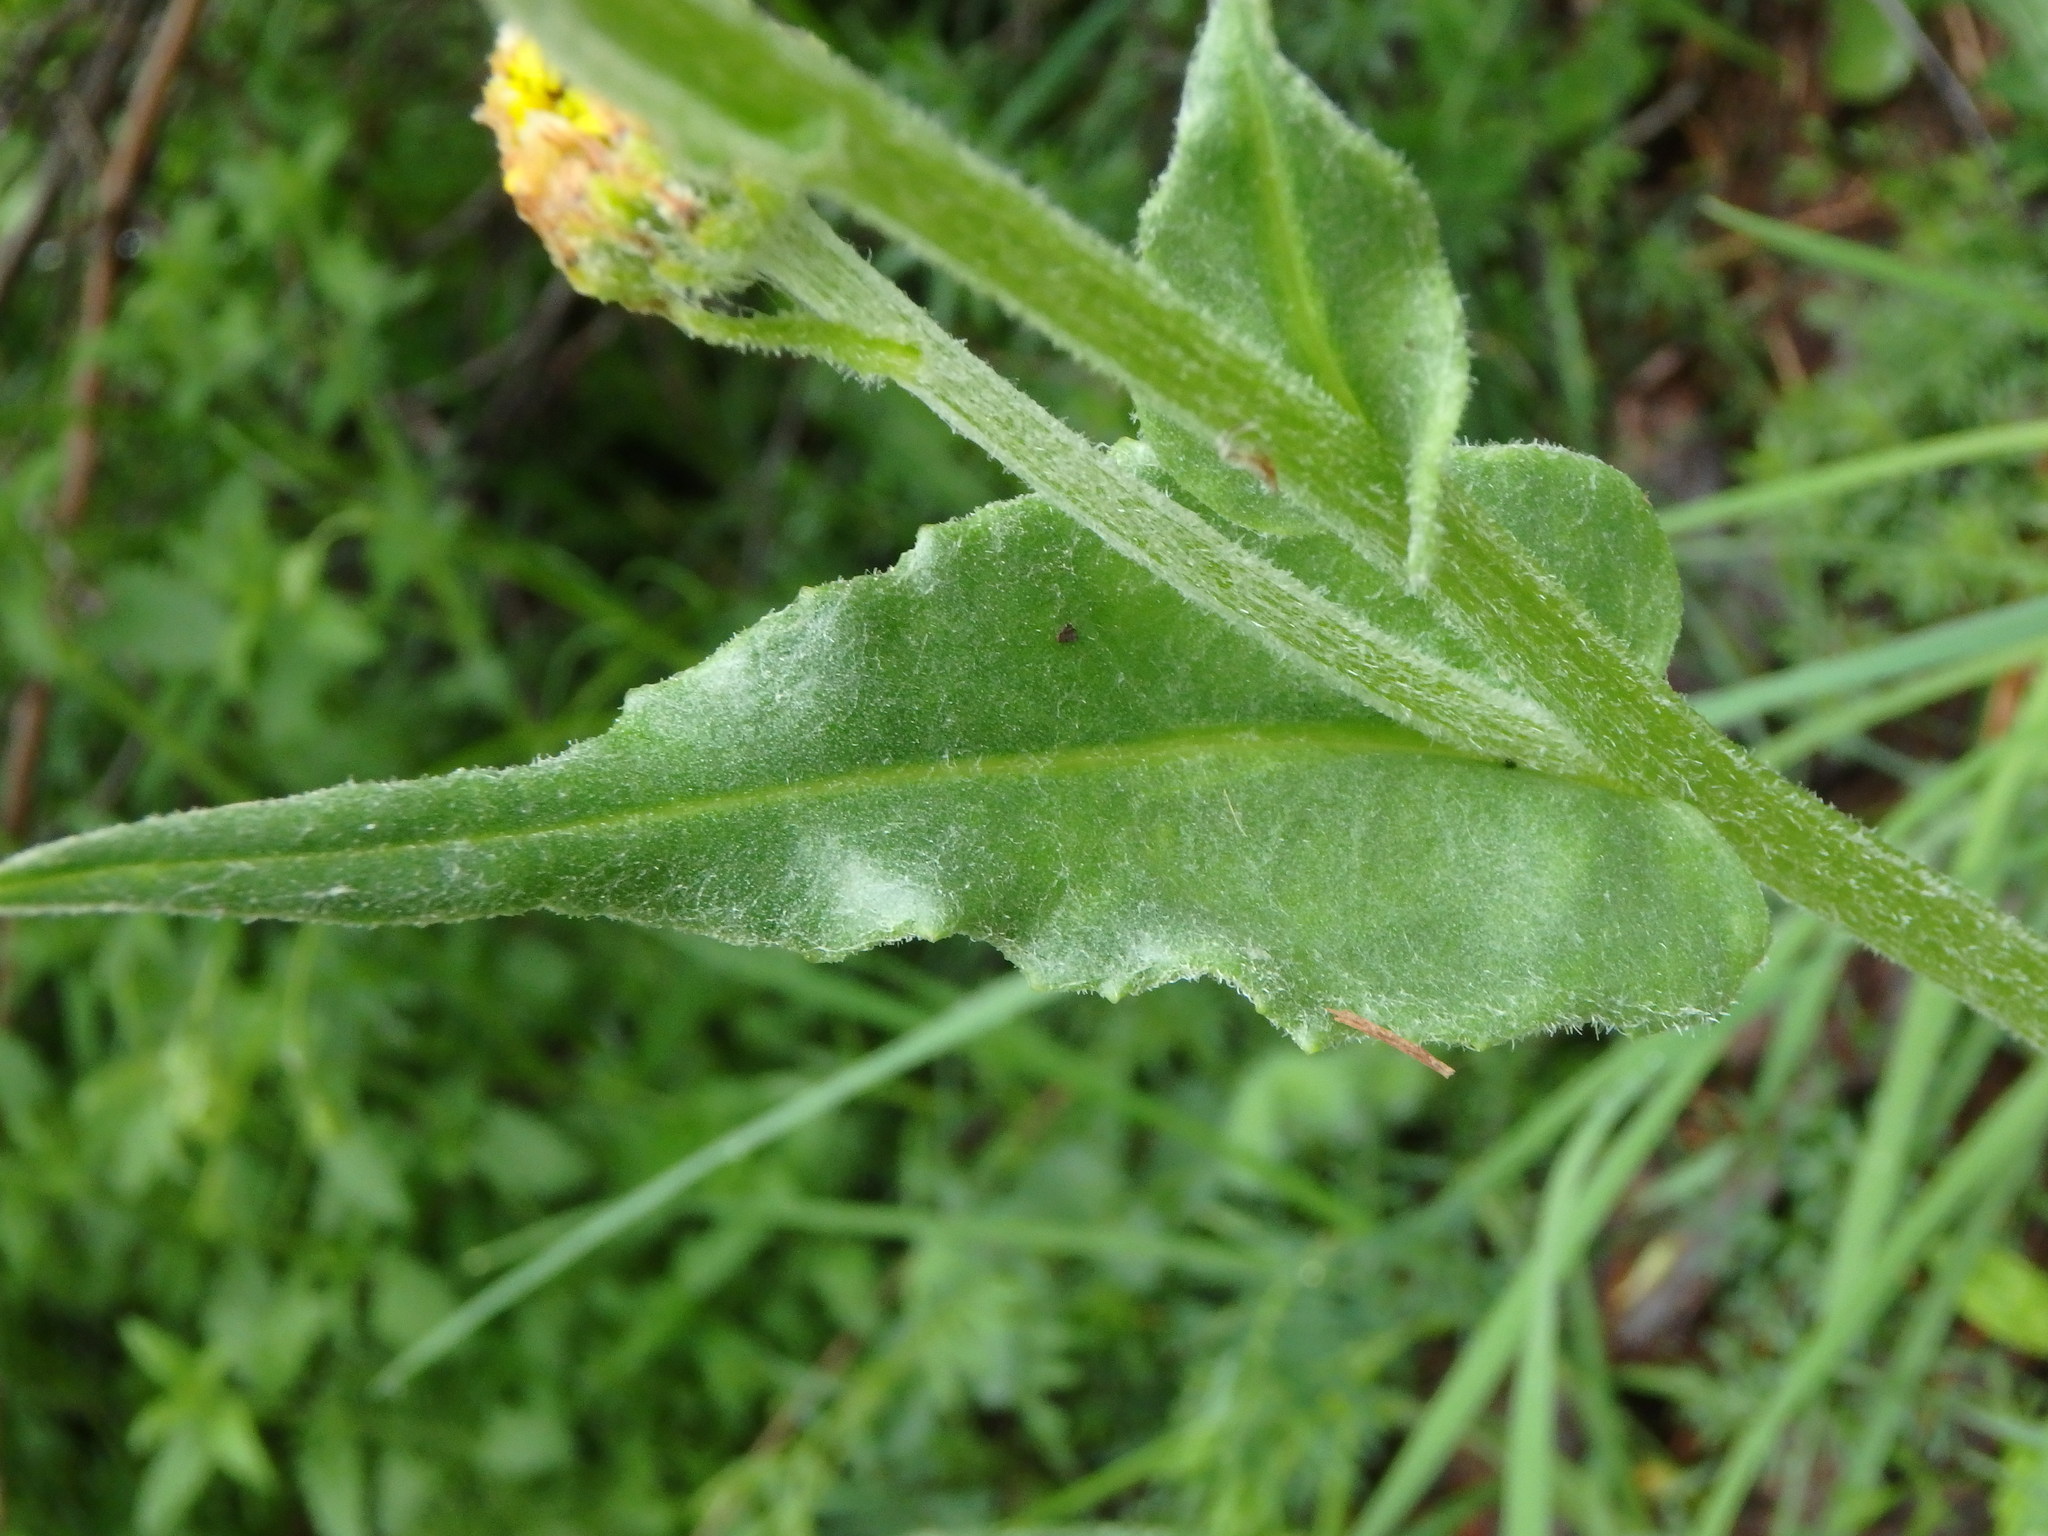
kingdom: Plantae
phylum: Tracheophyta
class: Magnoliopsida
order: Asterales
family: Asteraceae
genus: Senecio
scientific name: Senecio doronicum
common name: Chamois ragwort
